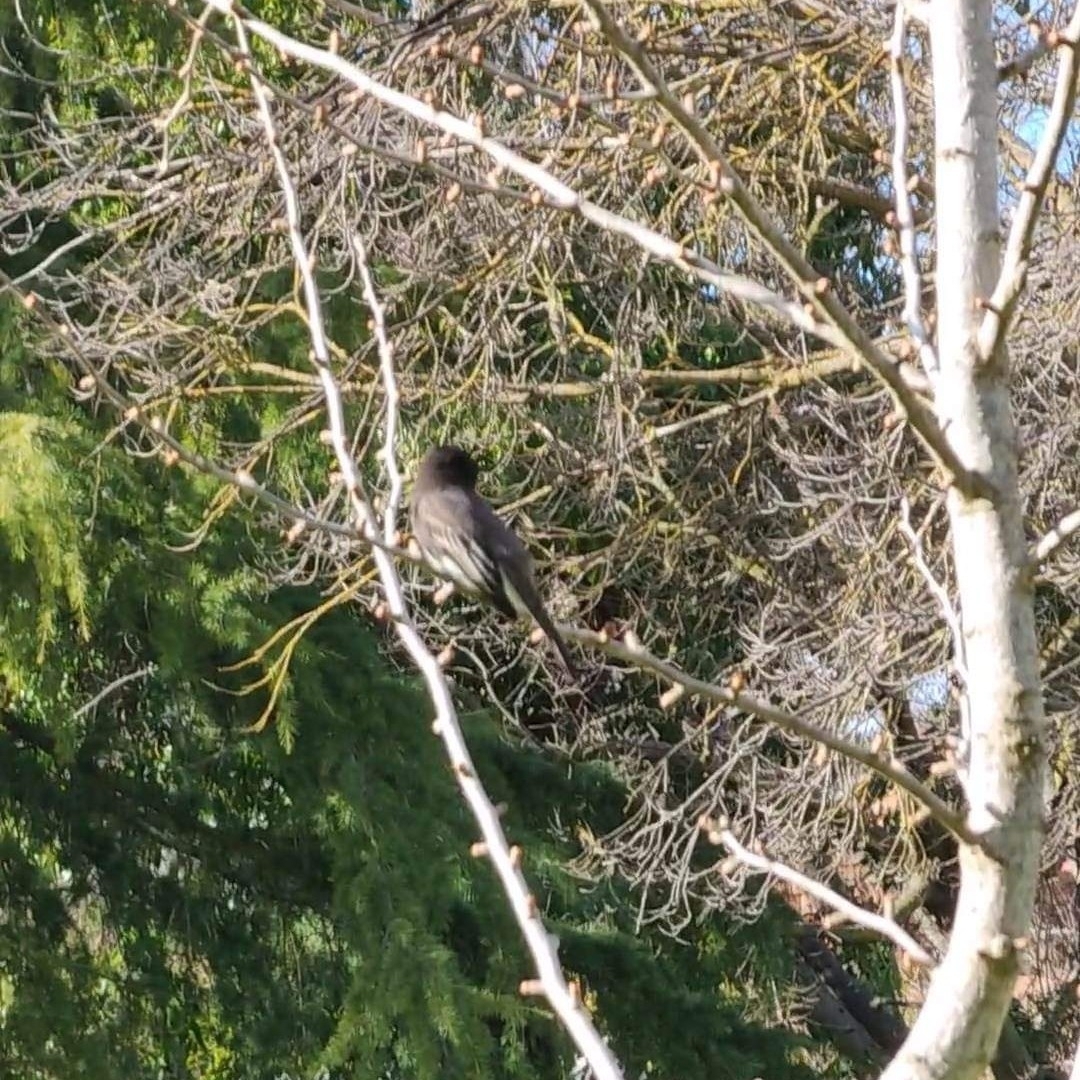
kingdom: Animalia
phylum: Chordata
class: Aves
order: Passeriformes
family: Tyrannidae
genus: Sayornis
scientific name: Sayornis nigricans
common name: Black phoebe
